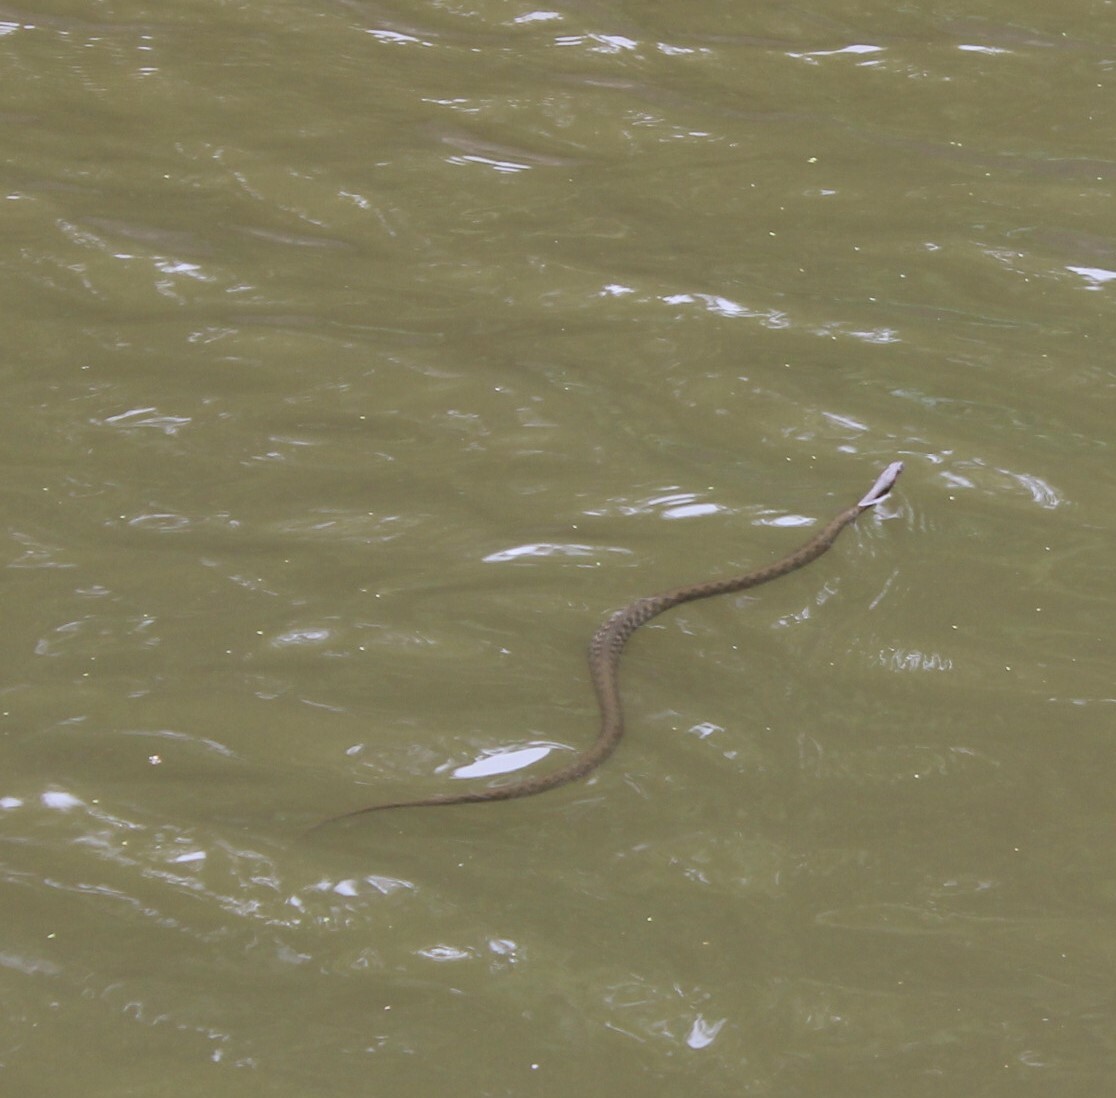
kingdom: Animalia
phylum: Chordata
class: Squamata
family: Colubridae
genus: Natrix
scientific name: Natrix tessellata
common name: Dice snake
